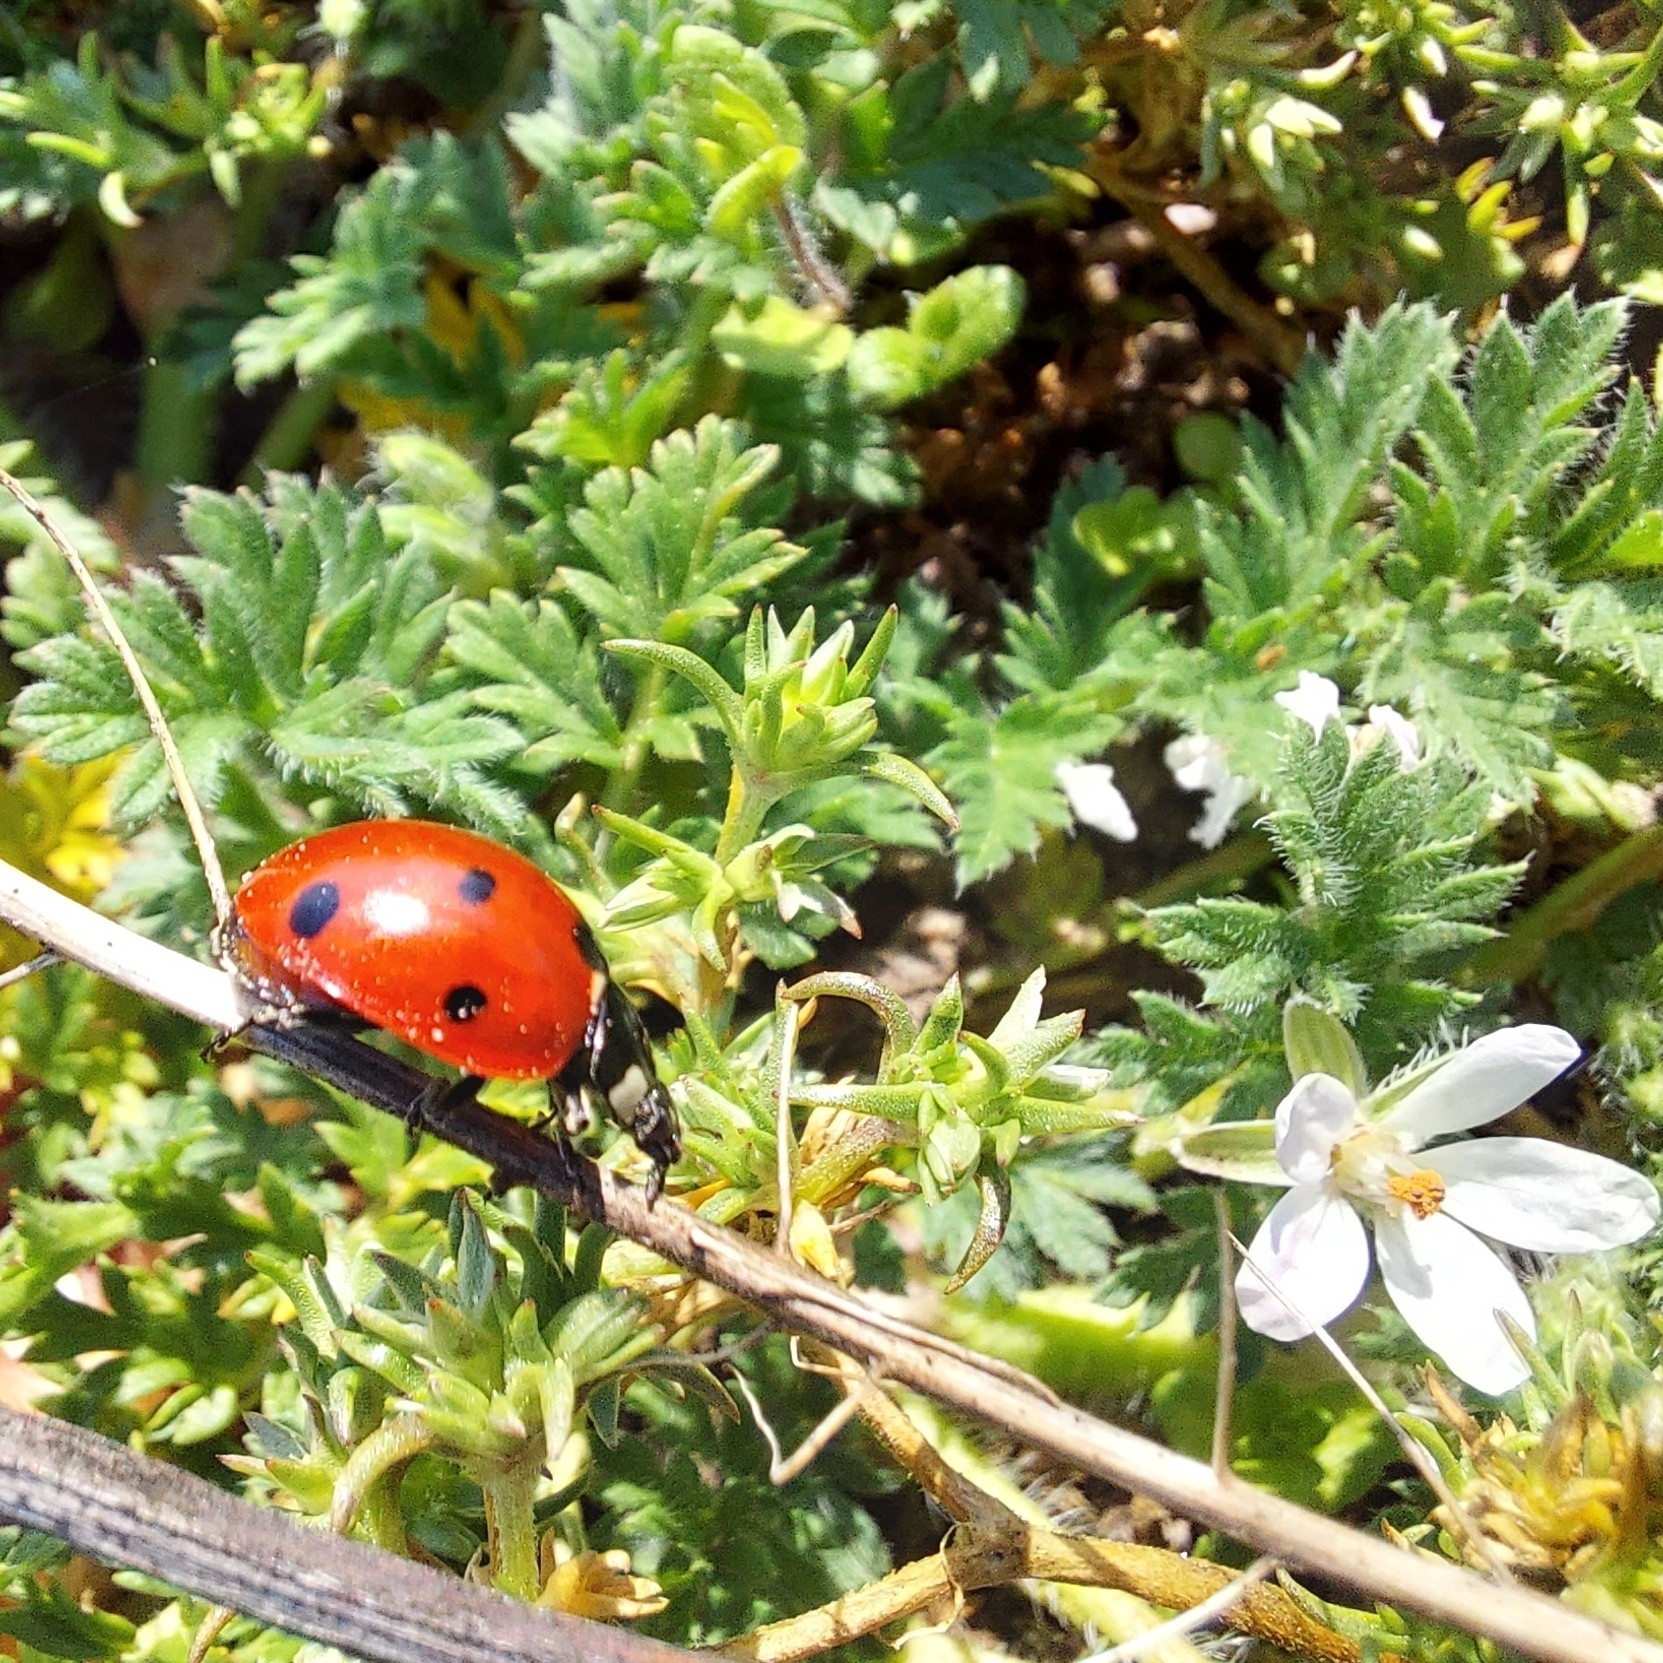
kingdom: Animalia
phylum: Arthropoda
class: Insecta
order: Coleoptera
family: Coccinellidae
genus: Coccinella
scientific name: Coccinella septempunctata
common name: Sevenspotted lady beetle
